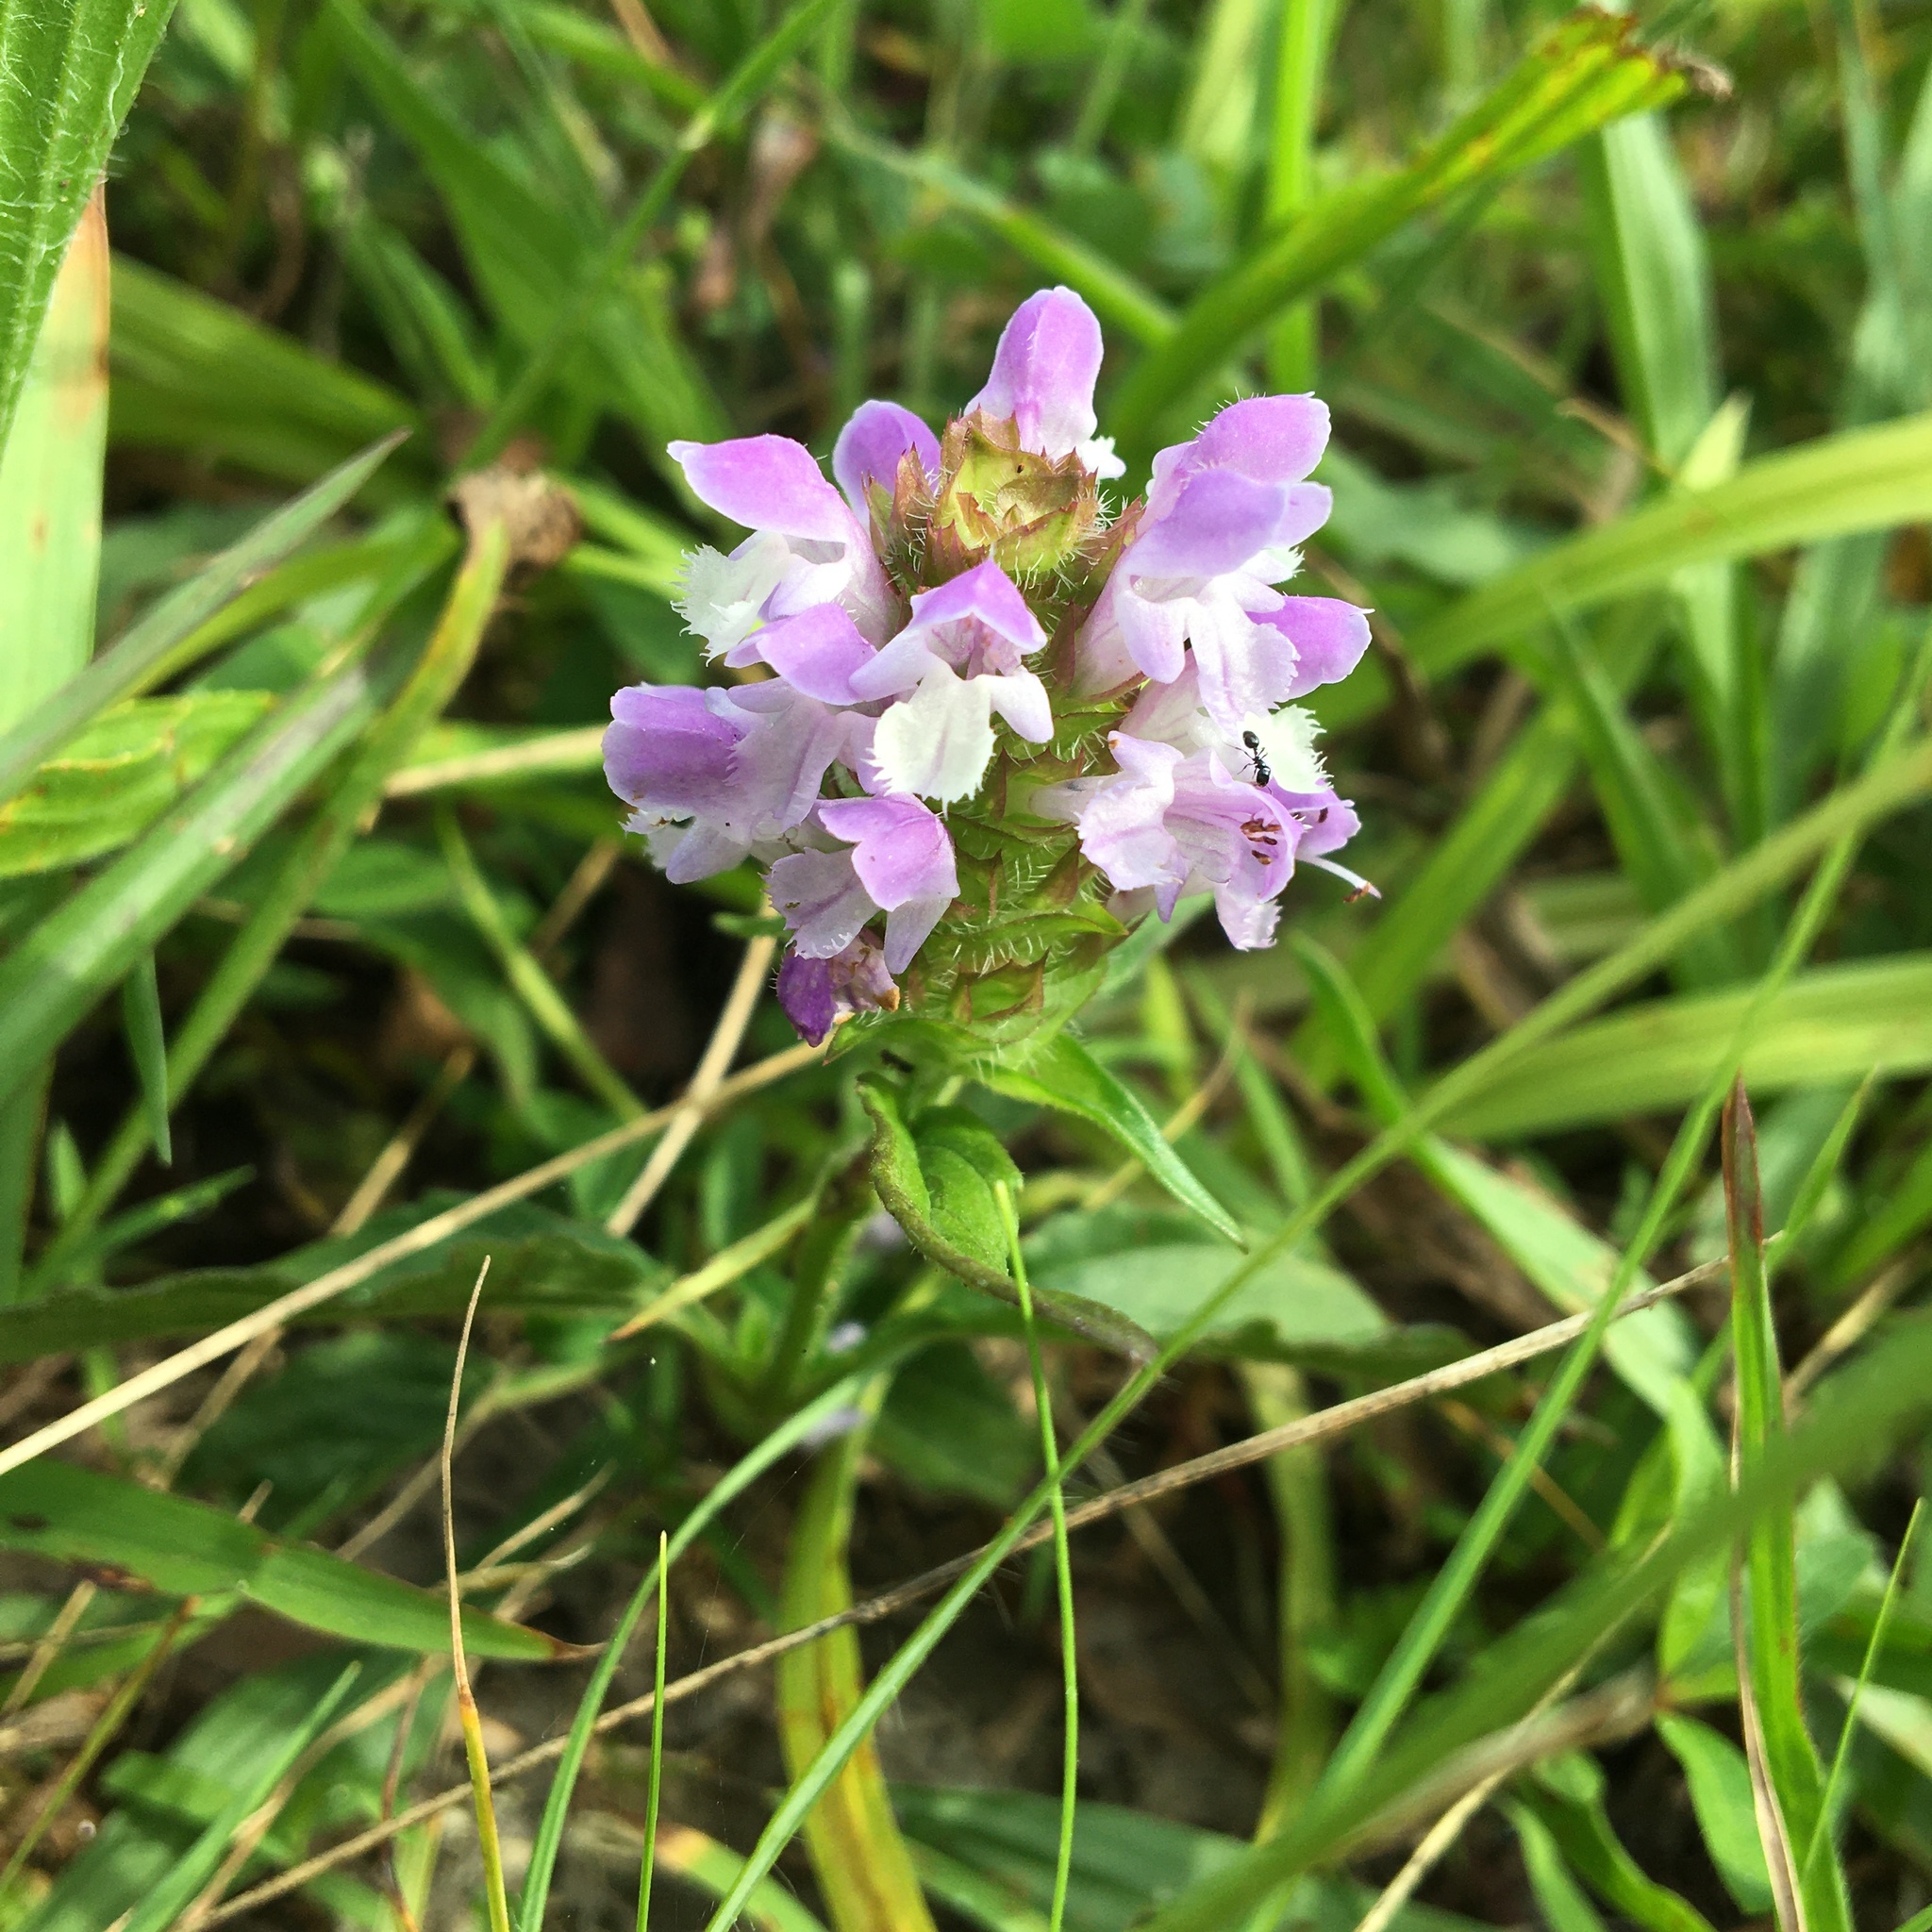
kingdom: Plantae
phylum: Tracheophyta
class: Magnoliopsida
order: Lamiales
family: Lamiaceae
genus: Prunella
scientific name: Prunella vulgaris
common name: Heal-all
